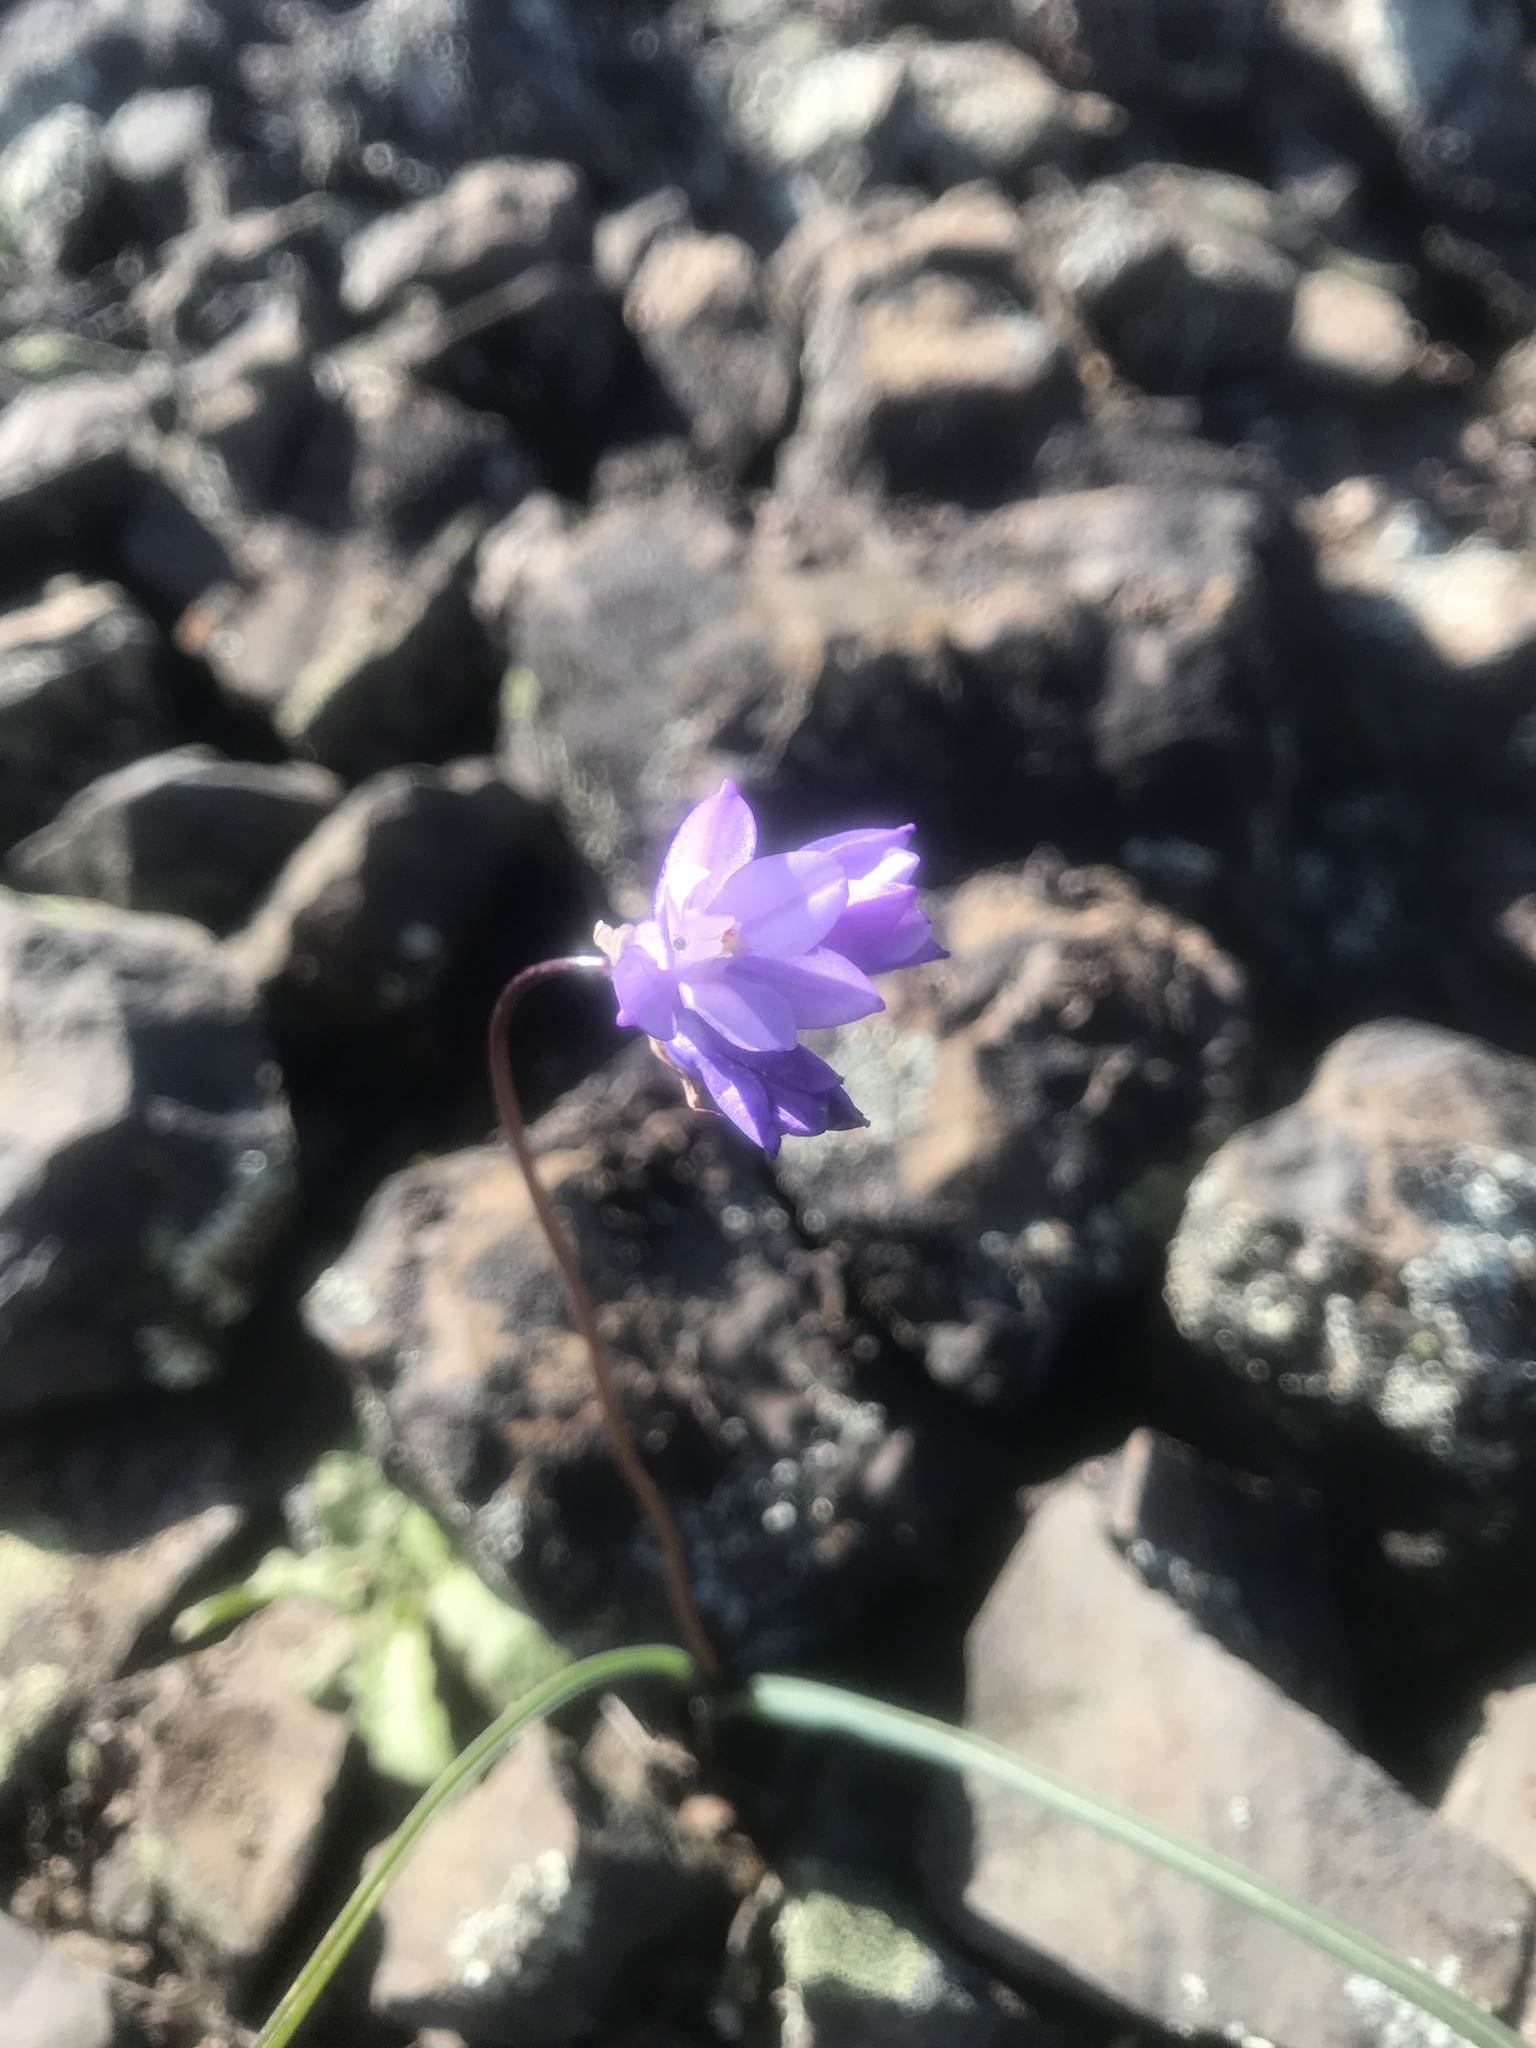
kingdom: Plantae
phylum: Tracheophyta
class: Liliopsida
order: Asparagales
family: Asparagaceae
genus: Dipterostemon
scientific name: Dipterostemon capitatus
